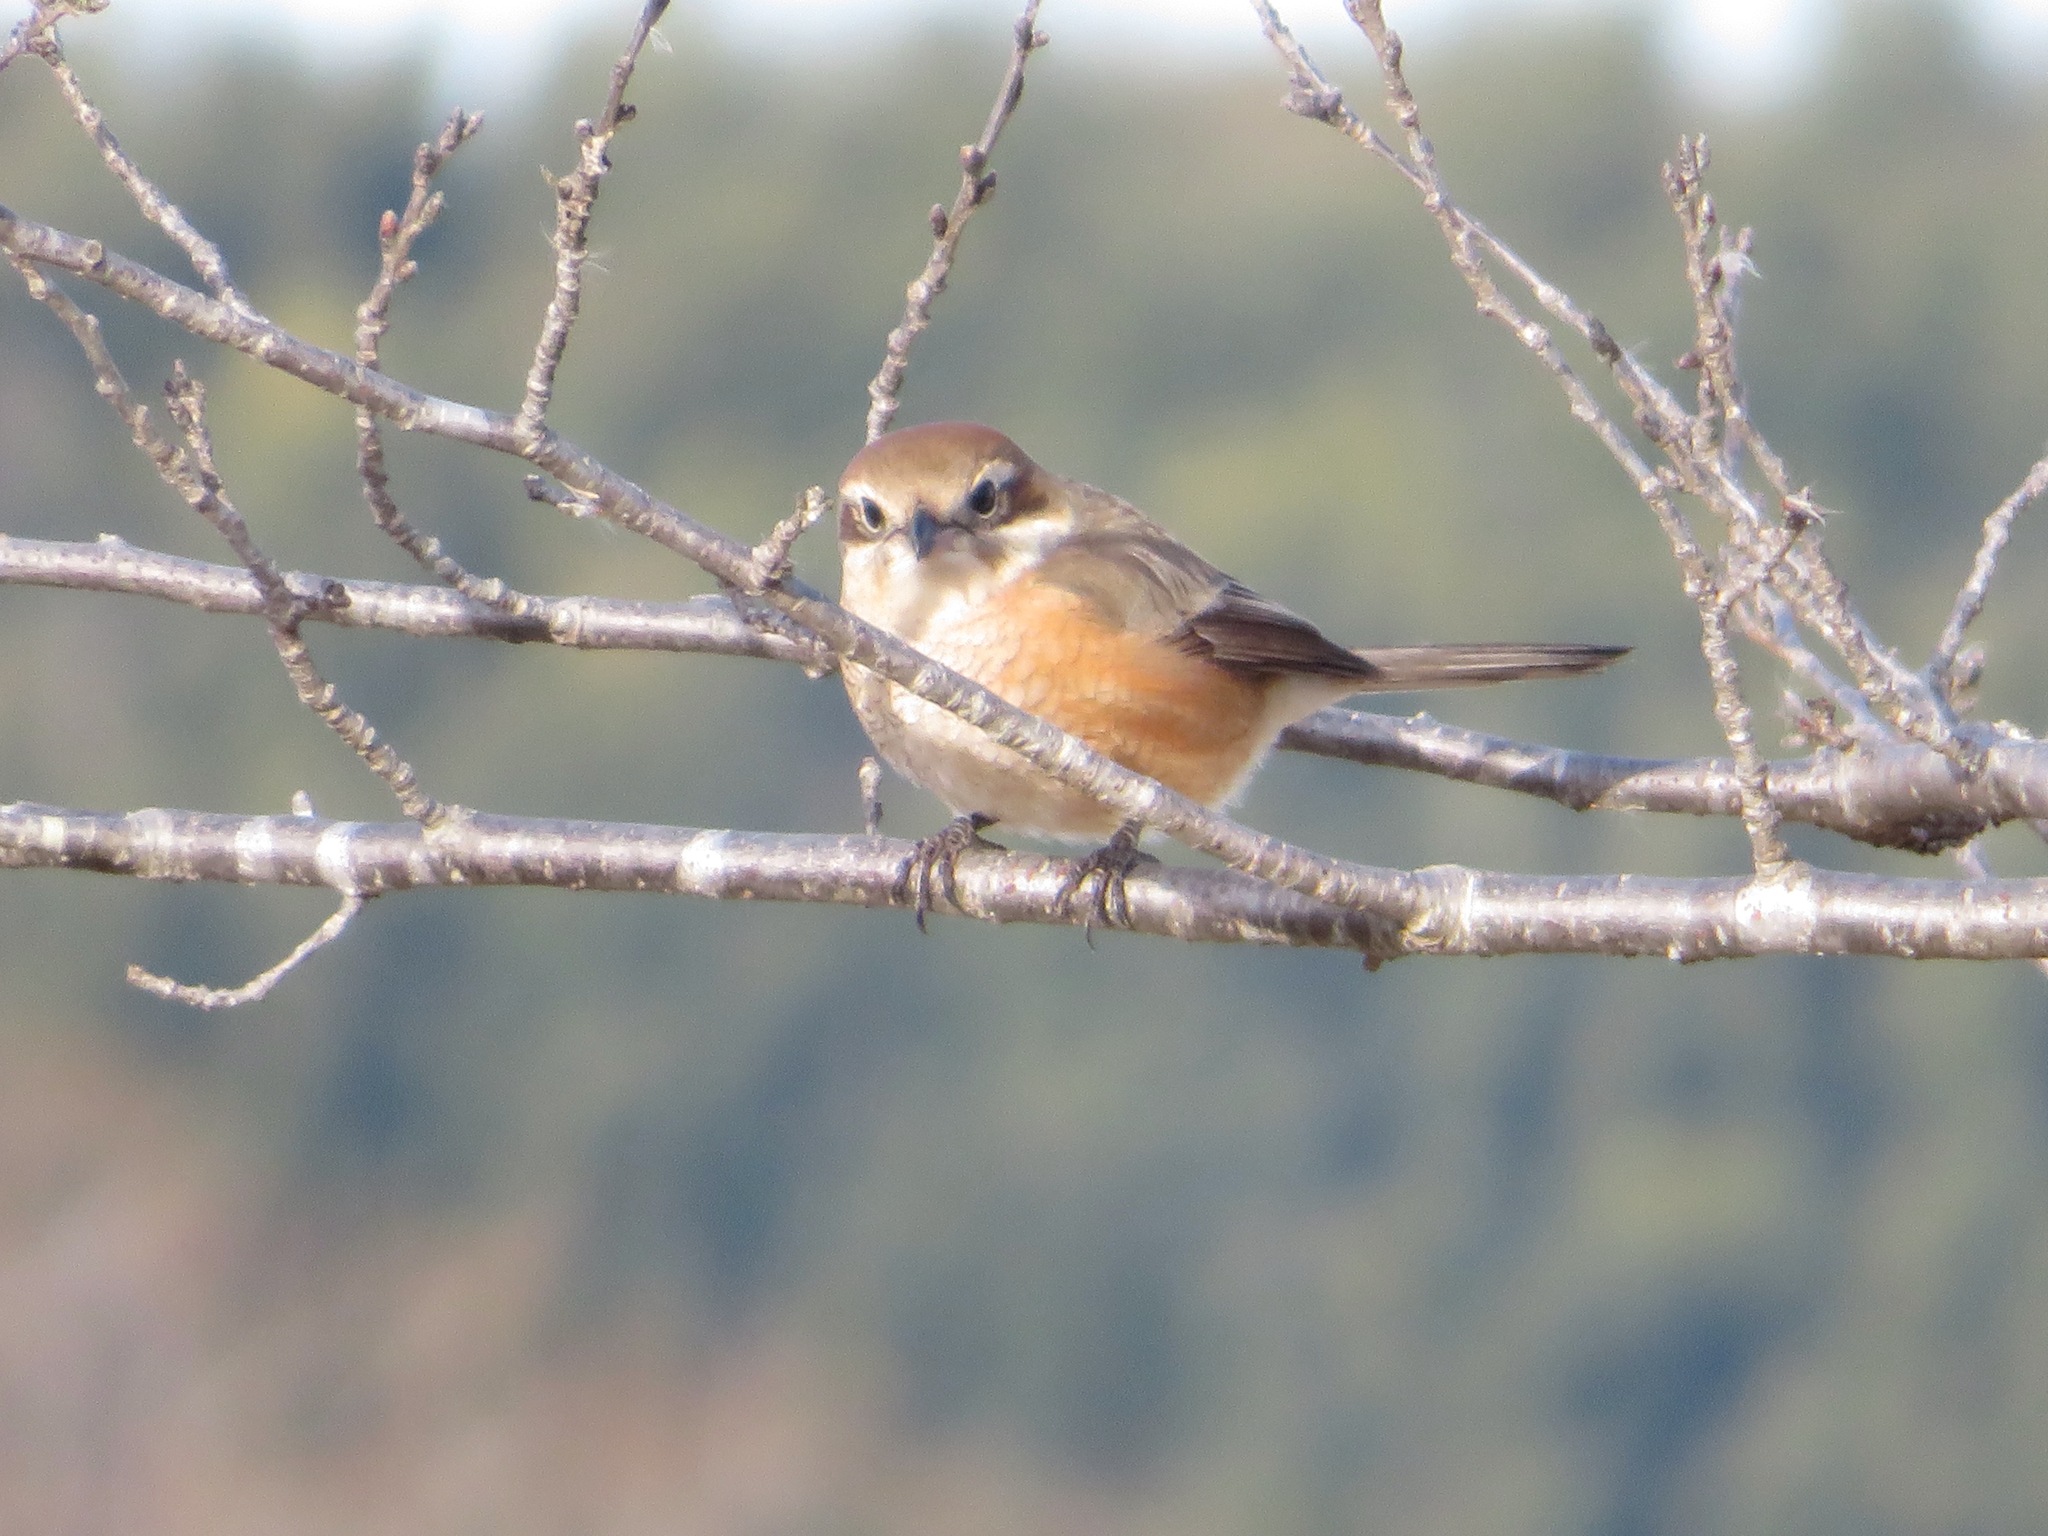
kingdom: Animalia
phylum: Chordata
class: Aves
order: Passeriformes
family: Laniidae
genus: Lanius
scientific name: Lanius bucephalus
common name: Bull-headed shrike
